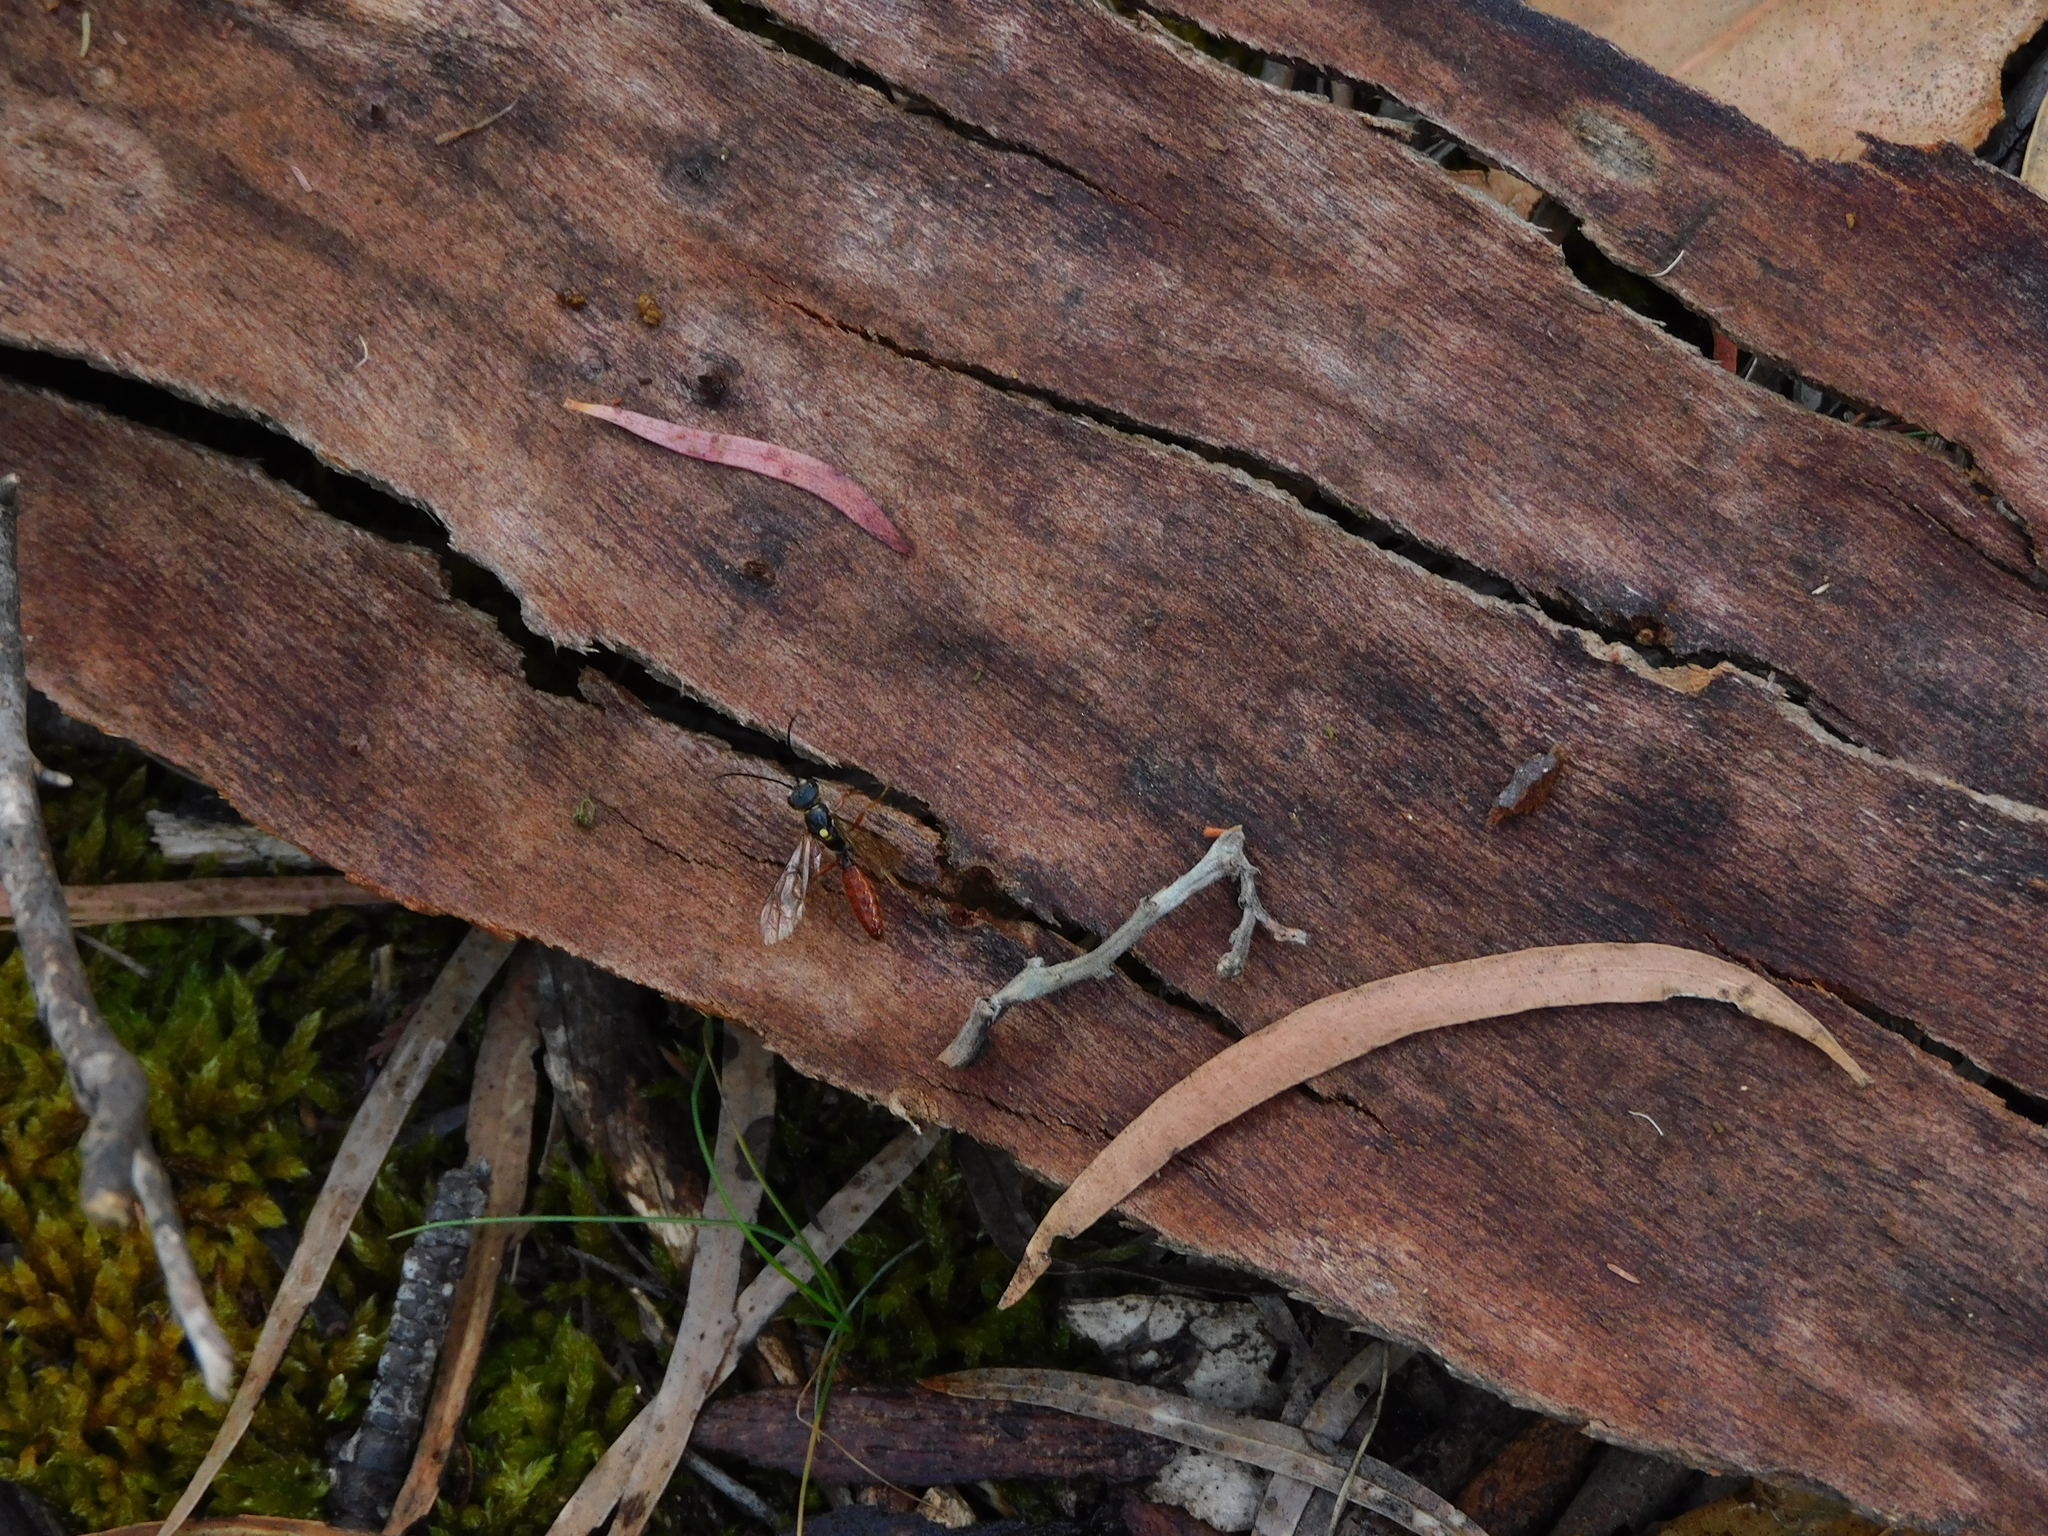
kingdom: Animalia
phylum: Arthropoda
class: Insecta
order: Hymenoptera
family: Tiphiidae
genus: Tachynomyia
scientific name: Tachynomyia
